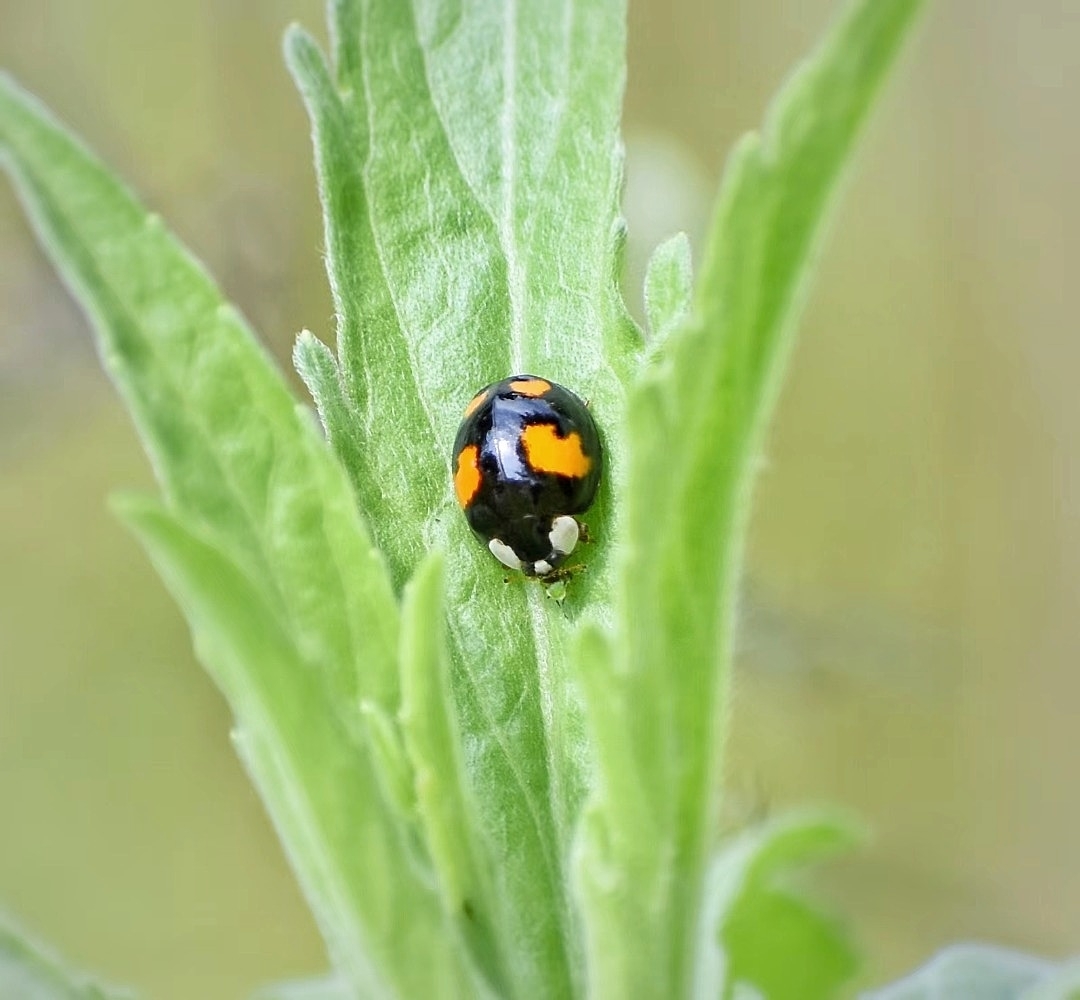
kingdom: Animalia
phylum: Arthropoda
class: Insecta
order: Coleoptera
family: Coccinellidae
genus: Harmonia
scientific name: Harmonia axyridis
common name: Harlequin ladybird
